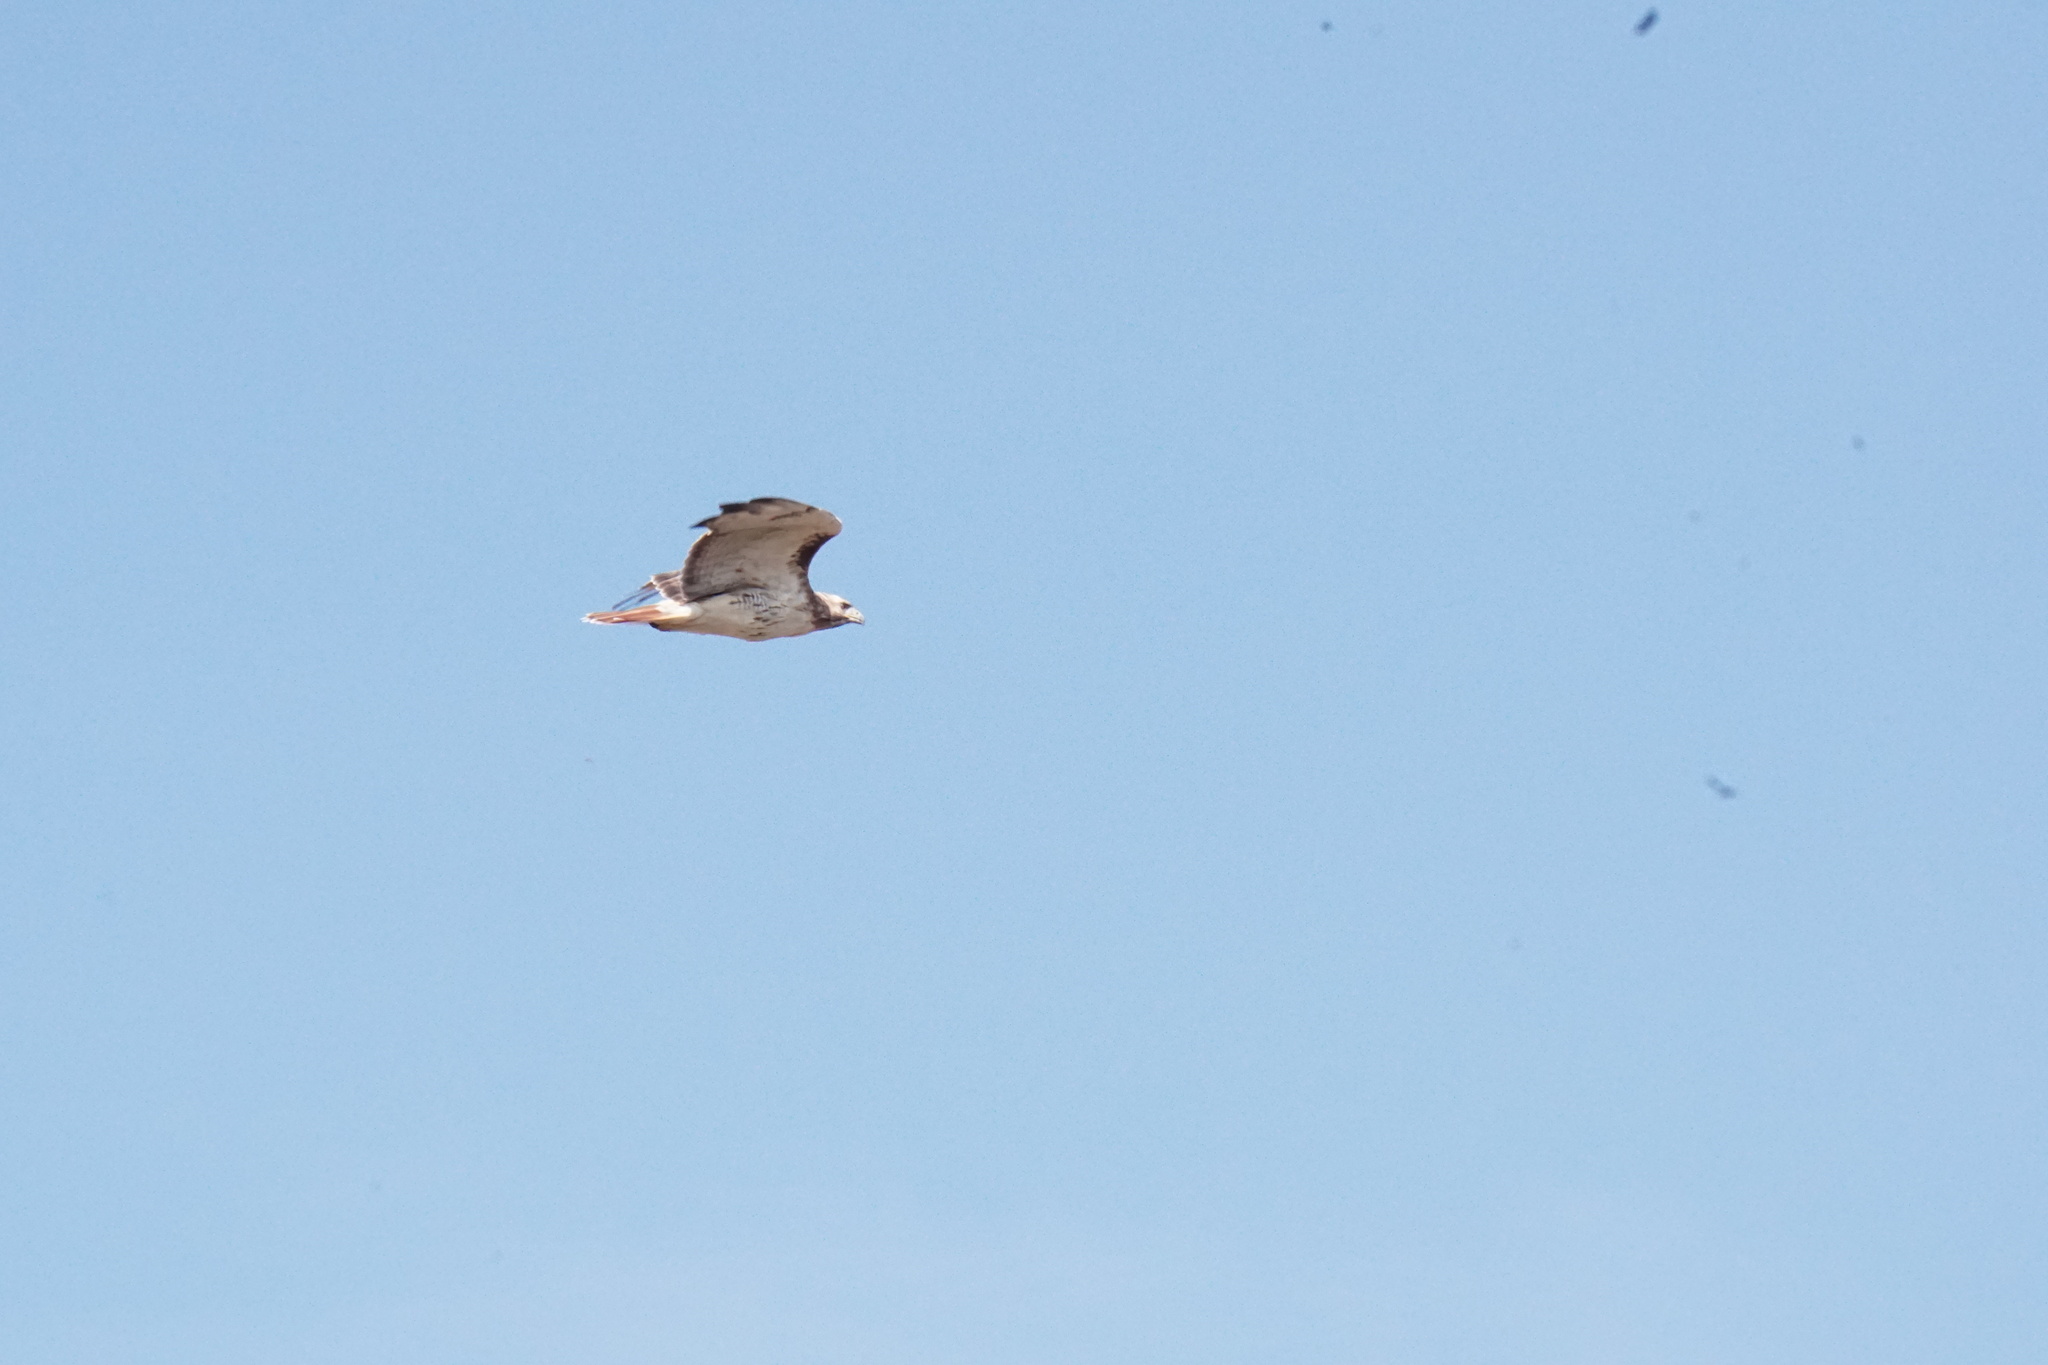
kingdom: Animalia
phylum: Chordata
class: Aves
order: Accipitriformes
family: Accipitridae
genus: Buteo
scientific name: Buteo jamaicensis
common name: Red-tailed hawk
